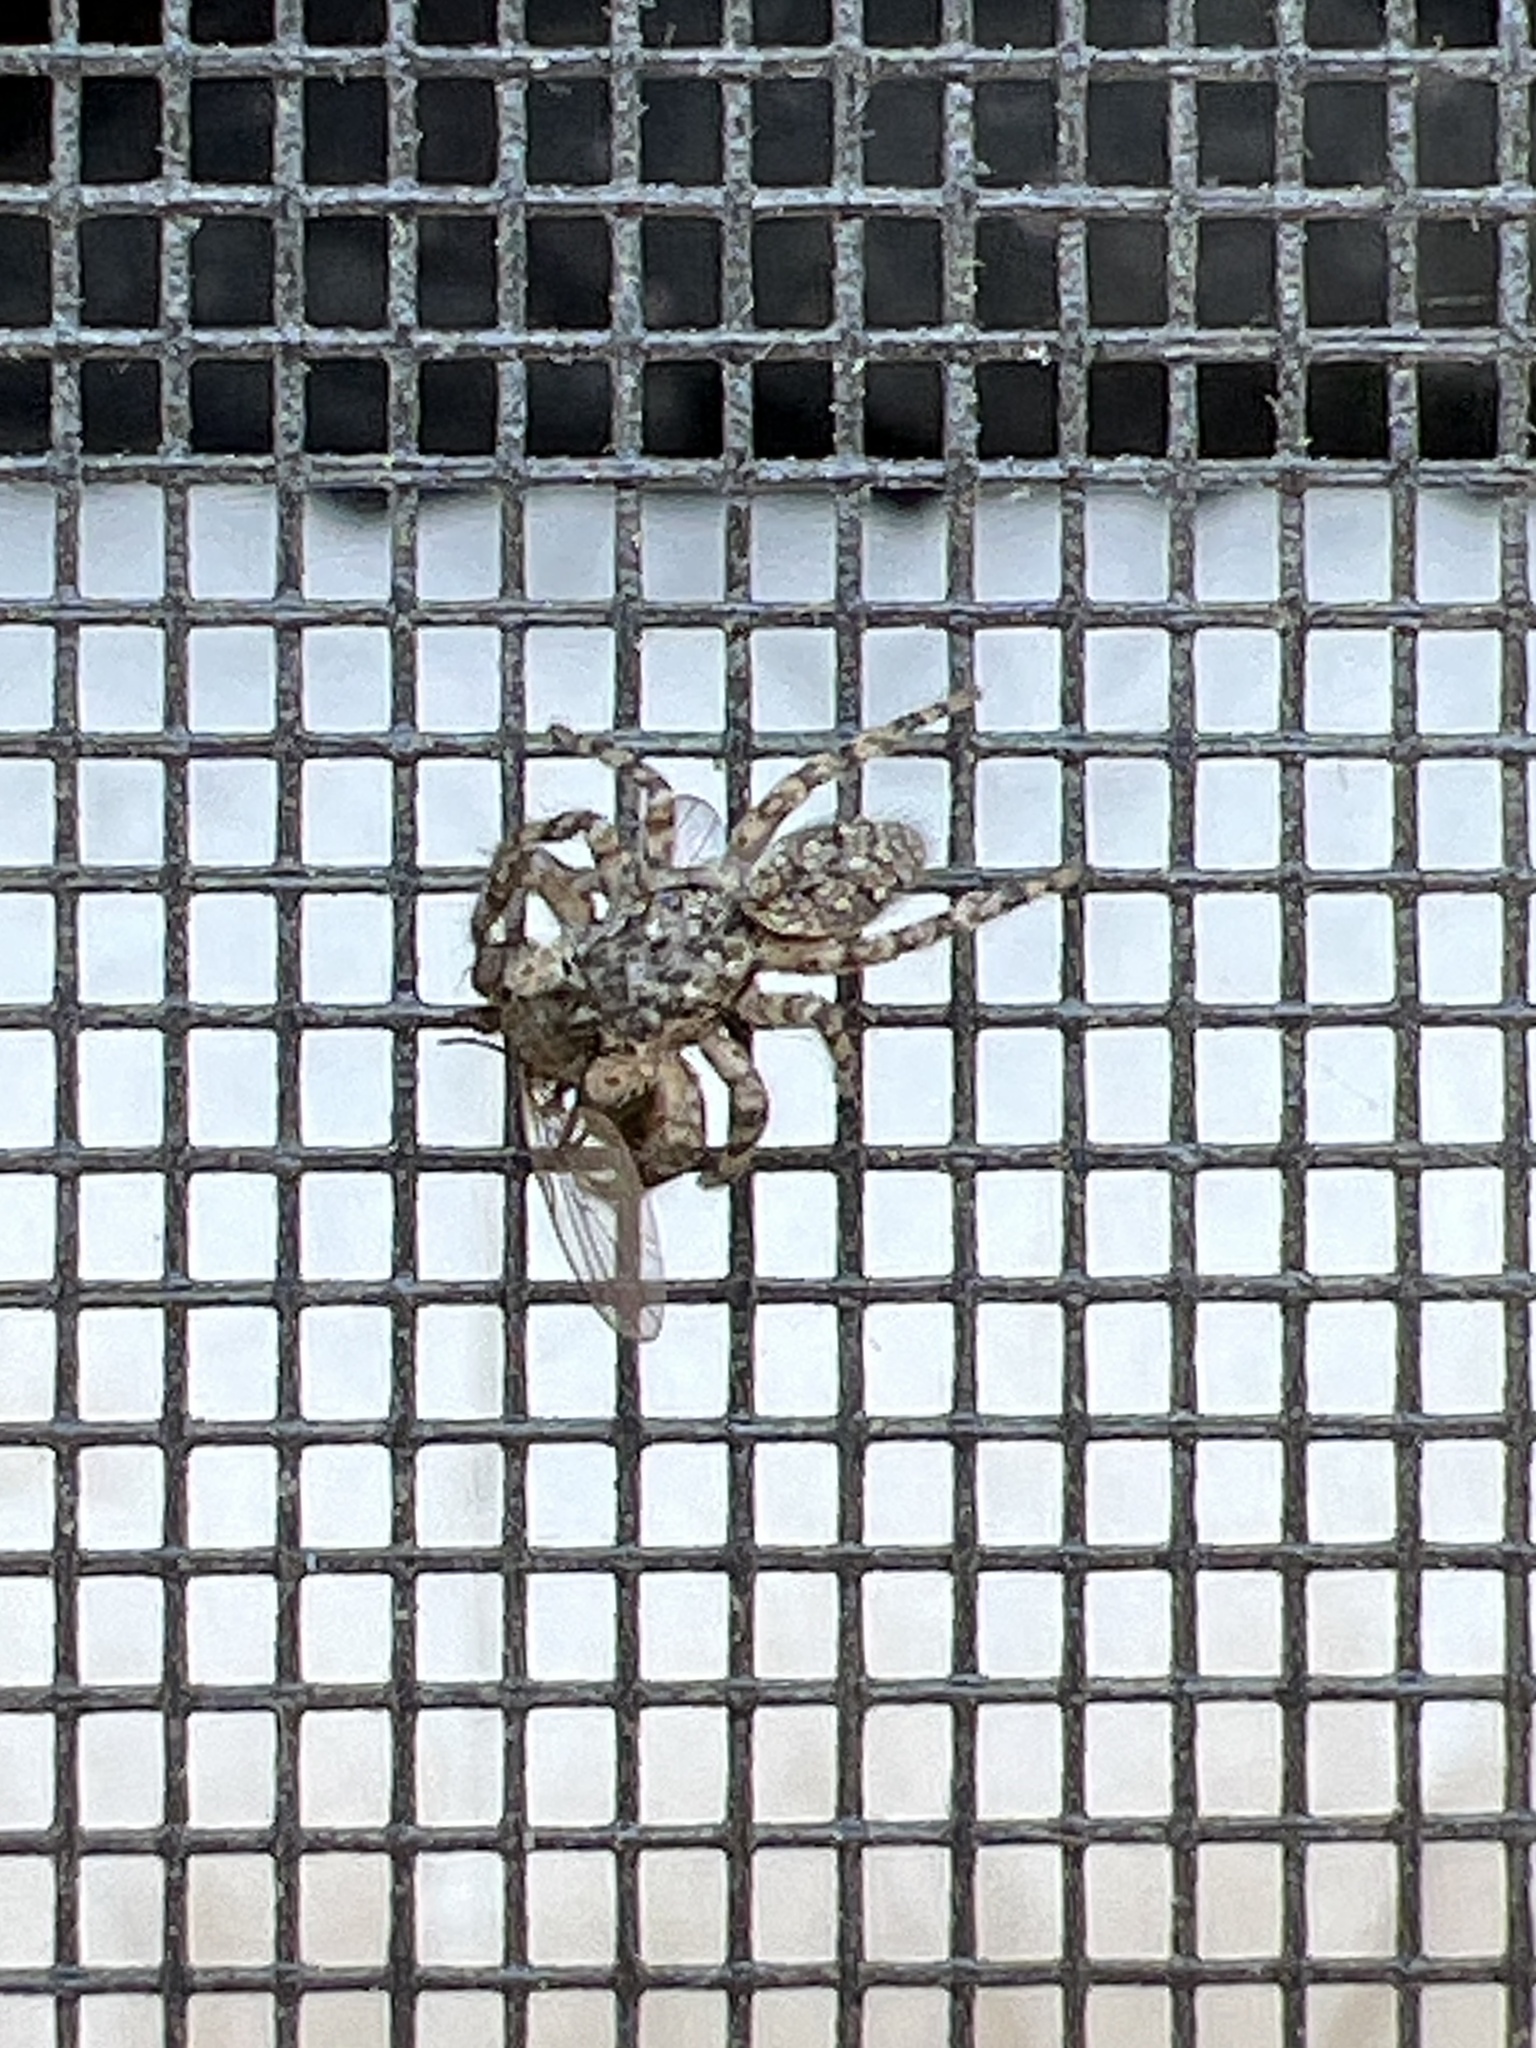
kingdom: Animalia
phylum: Arthropoda
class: Arachnida
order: Araneae
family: Salticidae
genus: Platycryptus
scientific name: Platycryptus undatus
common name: Tan jumping spider
